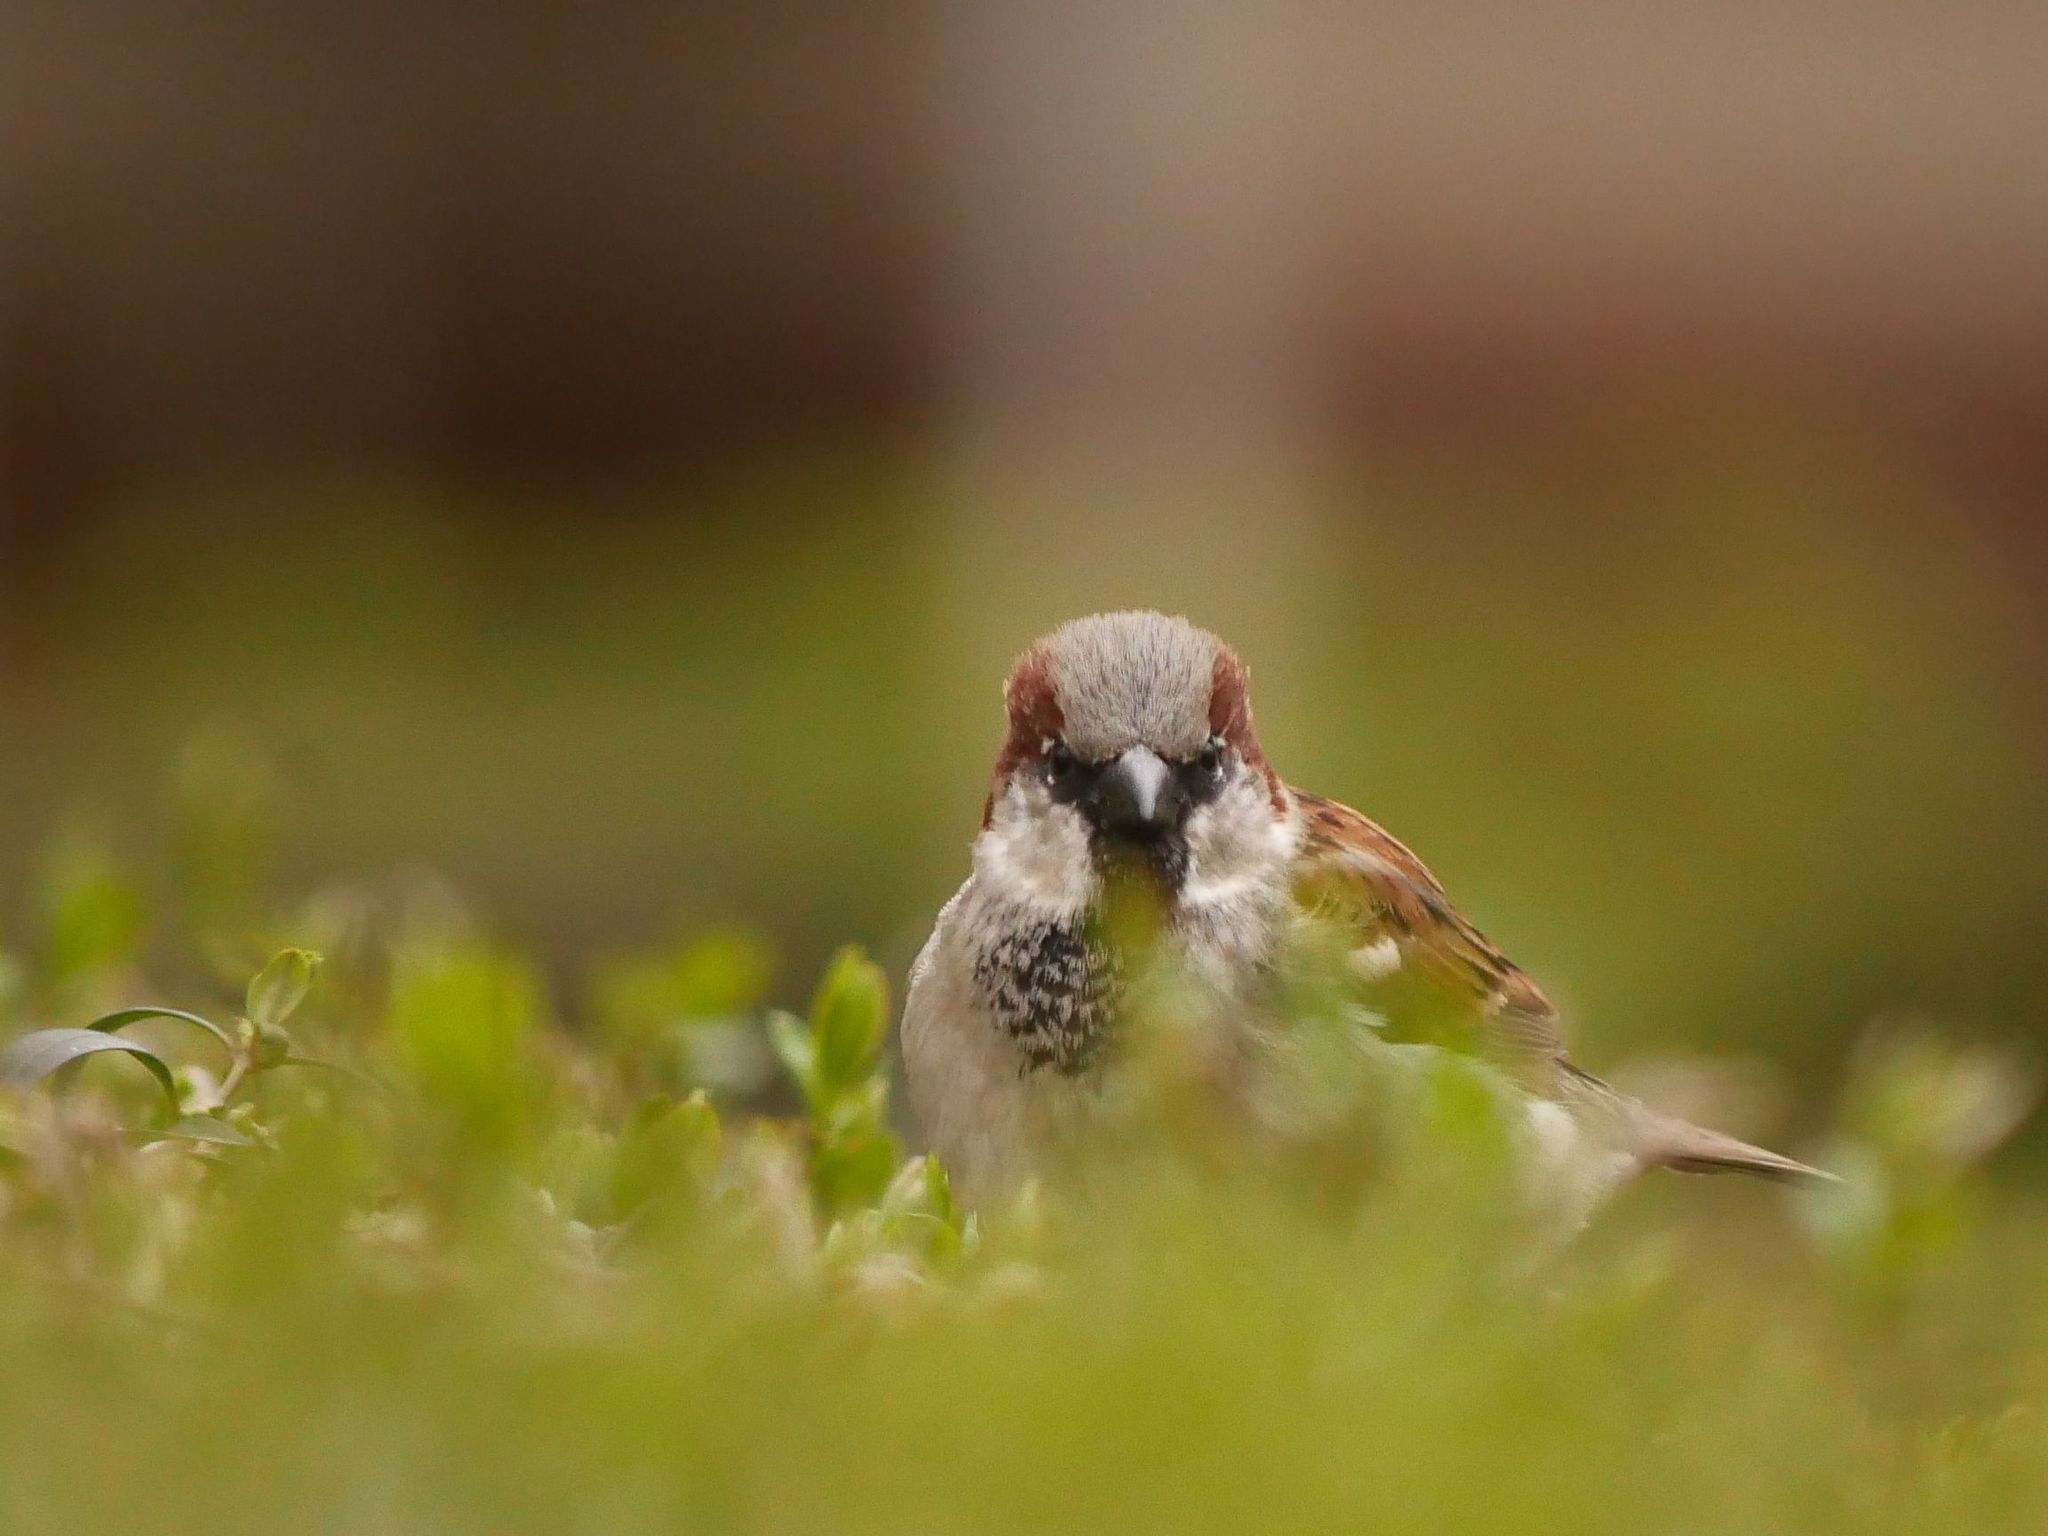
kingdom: Animalia
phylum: Chordata
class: Aves
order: Passeriformes
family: Passeridae
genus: Passer
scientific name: Passer domesticus
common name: House sparrow
